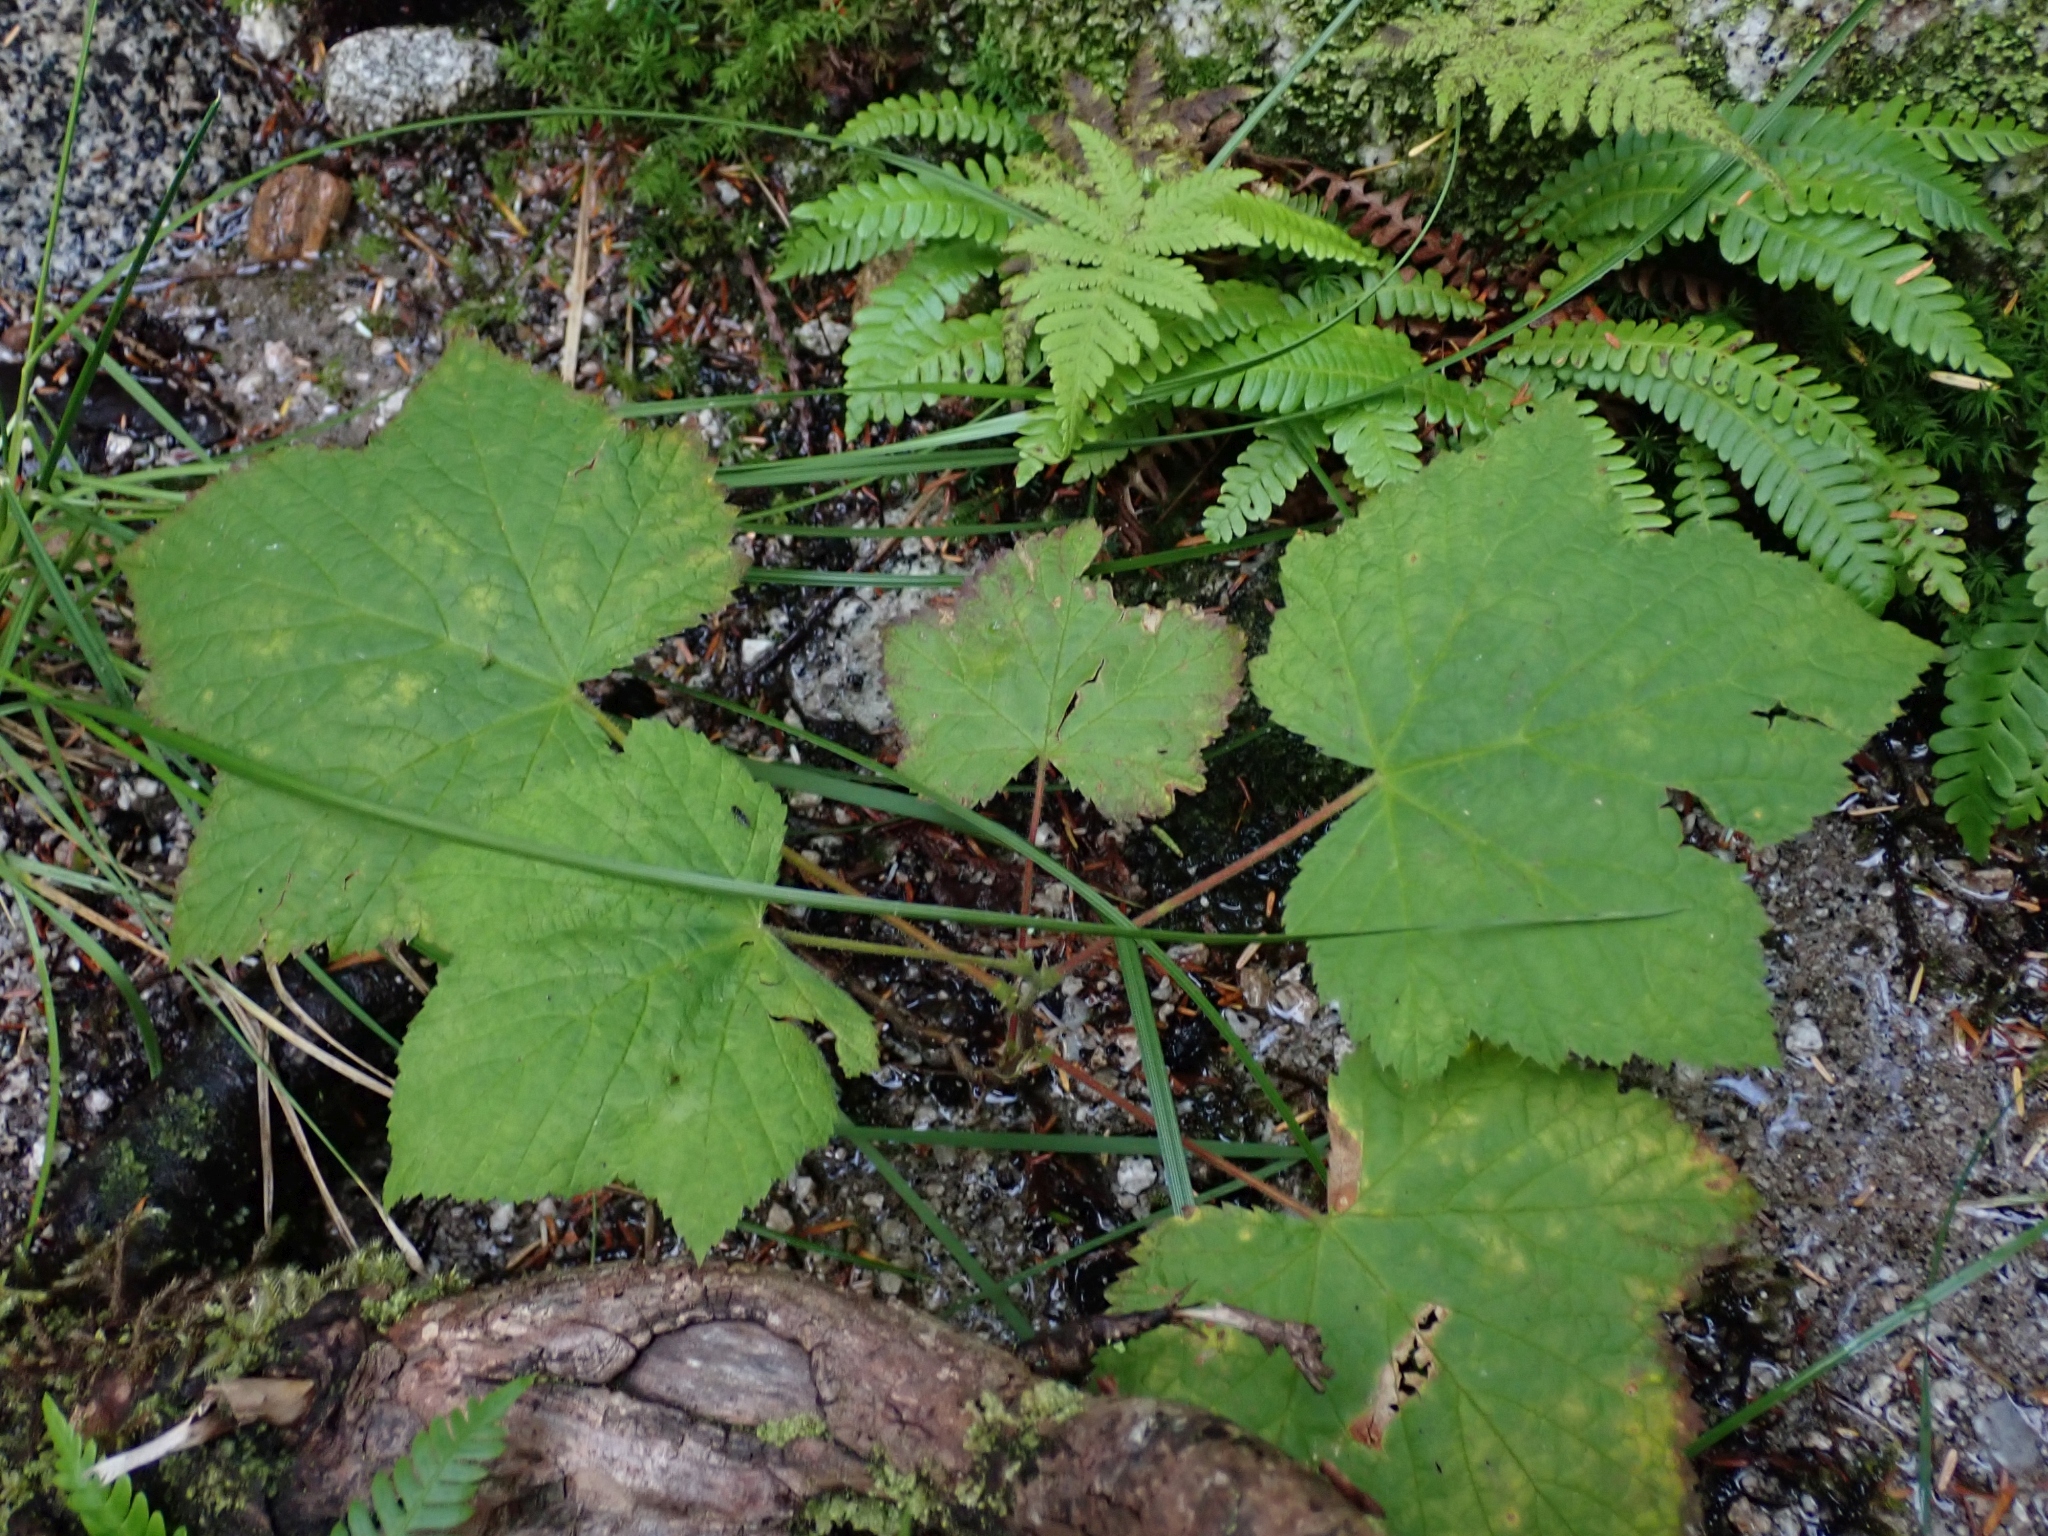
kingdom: Plantae
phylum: Tracheophyta
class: Magnoliopsida
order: Rosales
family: Rosaceae
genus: Rubus
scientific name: Rubus parviflorus
